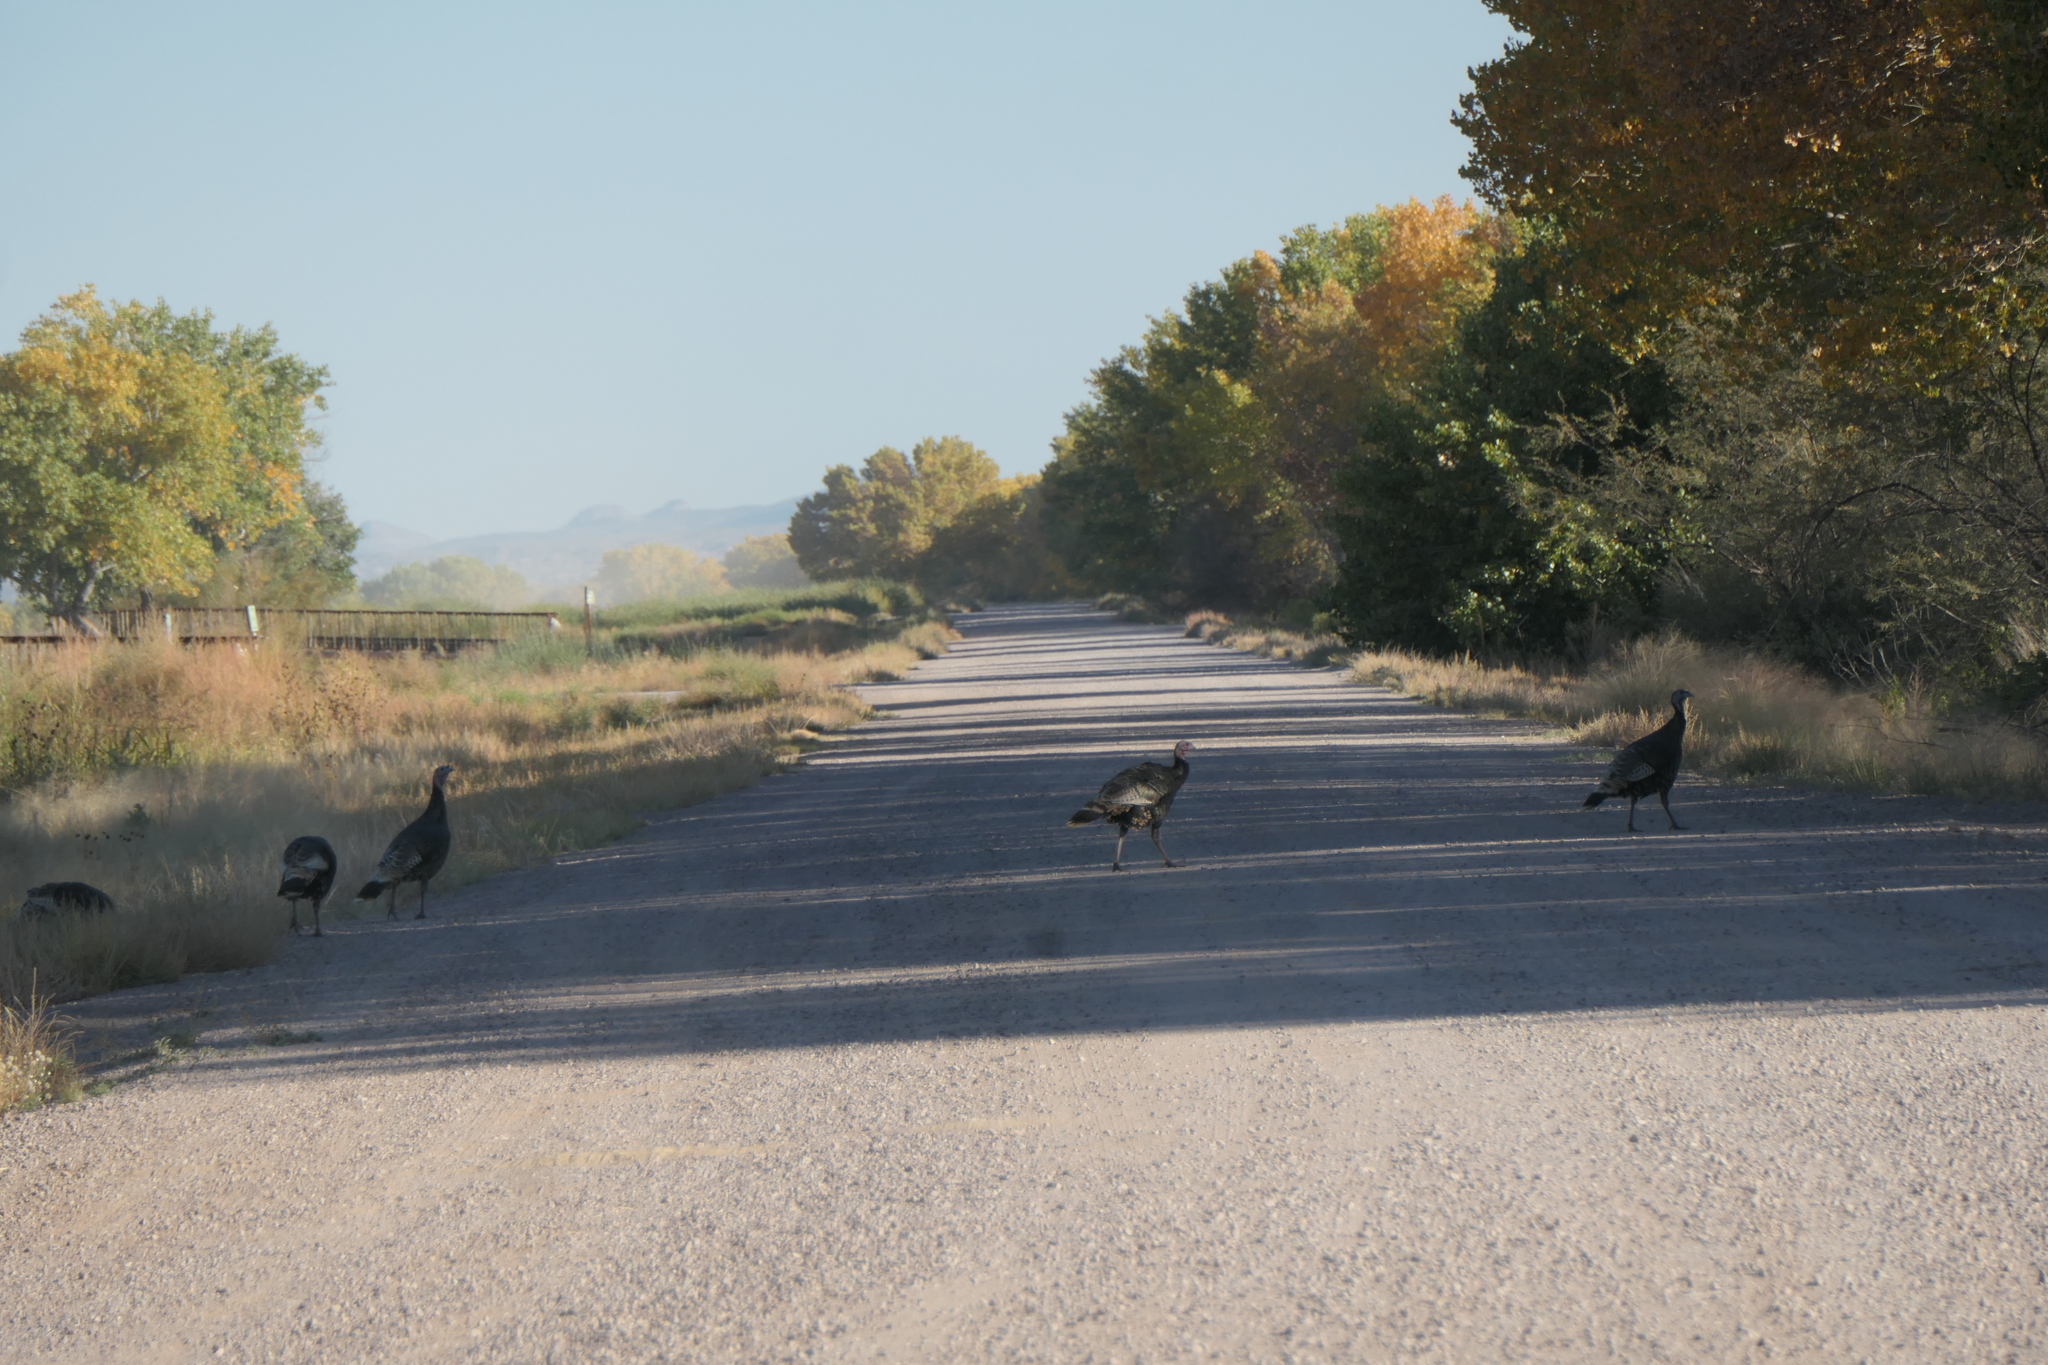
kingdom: Animalia
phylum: Chordata
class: Aves
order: Galliformes
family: Phasianidae
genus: Meleagris
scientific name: Meleagris gallopavo
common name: Wild turkey
